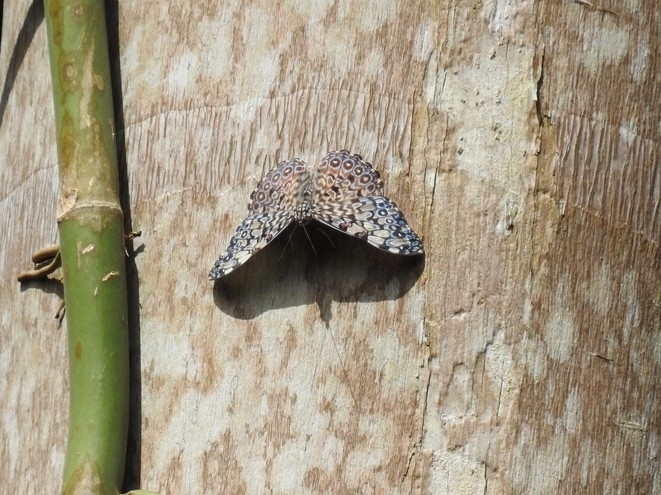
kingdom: Animalia
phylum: Arthropoda
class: Insecta
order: Lepidoptera
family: Nymphalidae
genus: Hamadryas
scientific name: Hamadryas feronia
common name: Variable cracker
